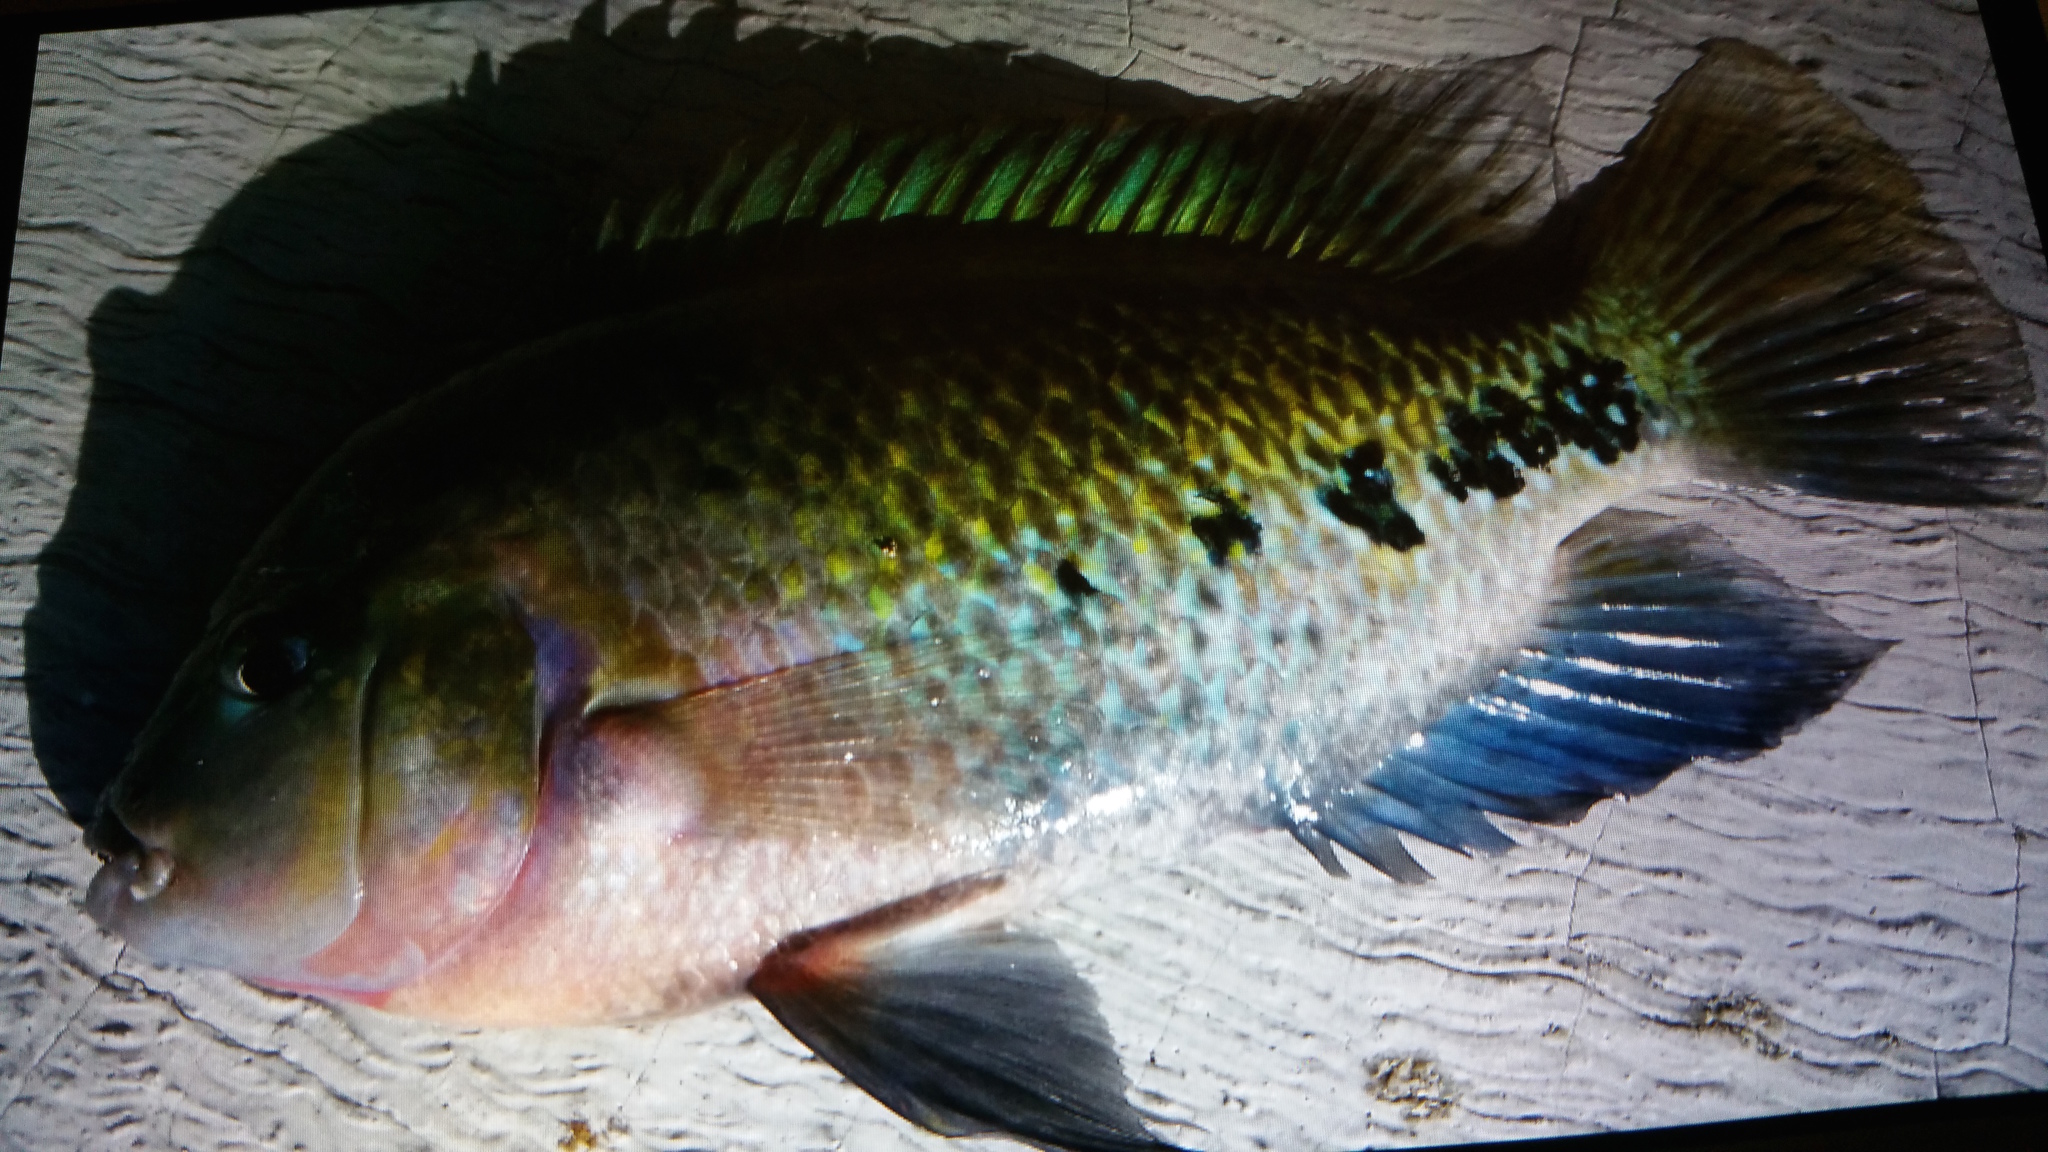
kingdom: Animalia
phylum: Chordata
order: Perciformes
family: Cichlidae
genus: Vieja
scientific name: Vieja melanura
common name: Redhead cichlid
